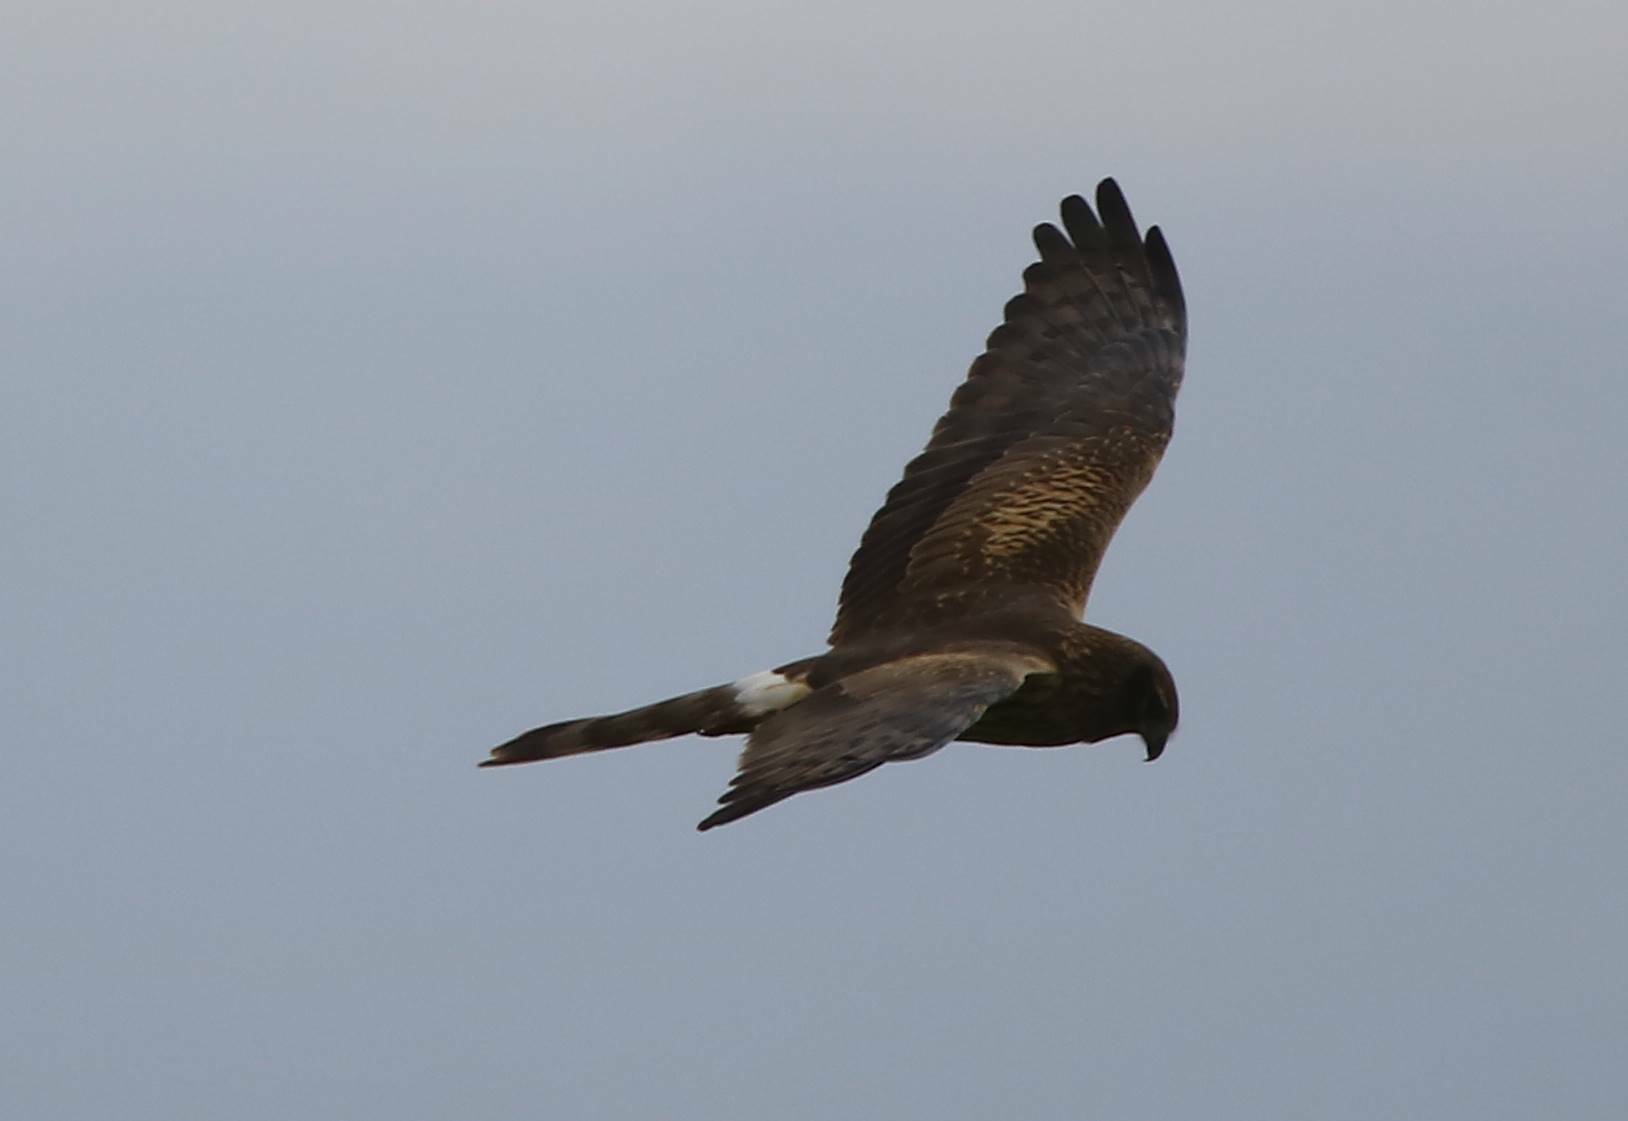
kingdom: Animalia
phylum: Chordata
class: Aves
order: Accipitriformes
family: Accipitridae
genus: Circus
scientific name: Circus pygargus
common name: Montagu's harrier
